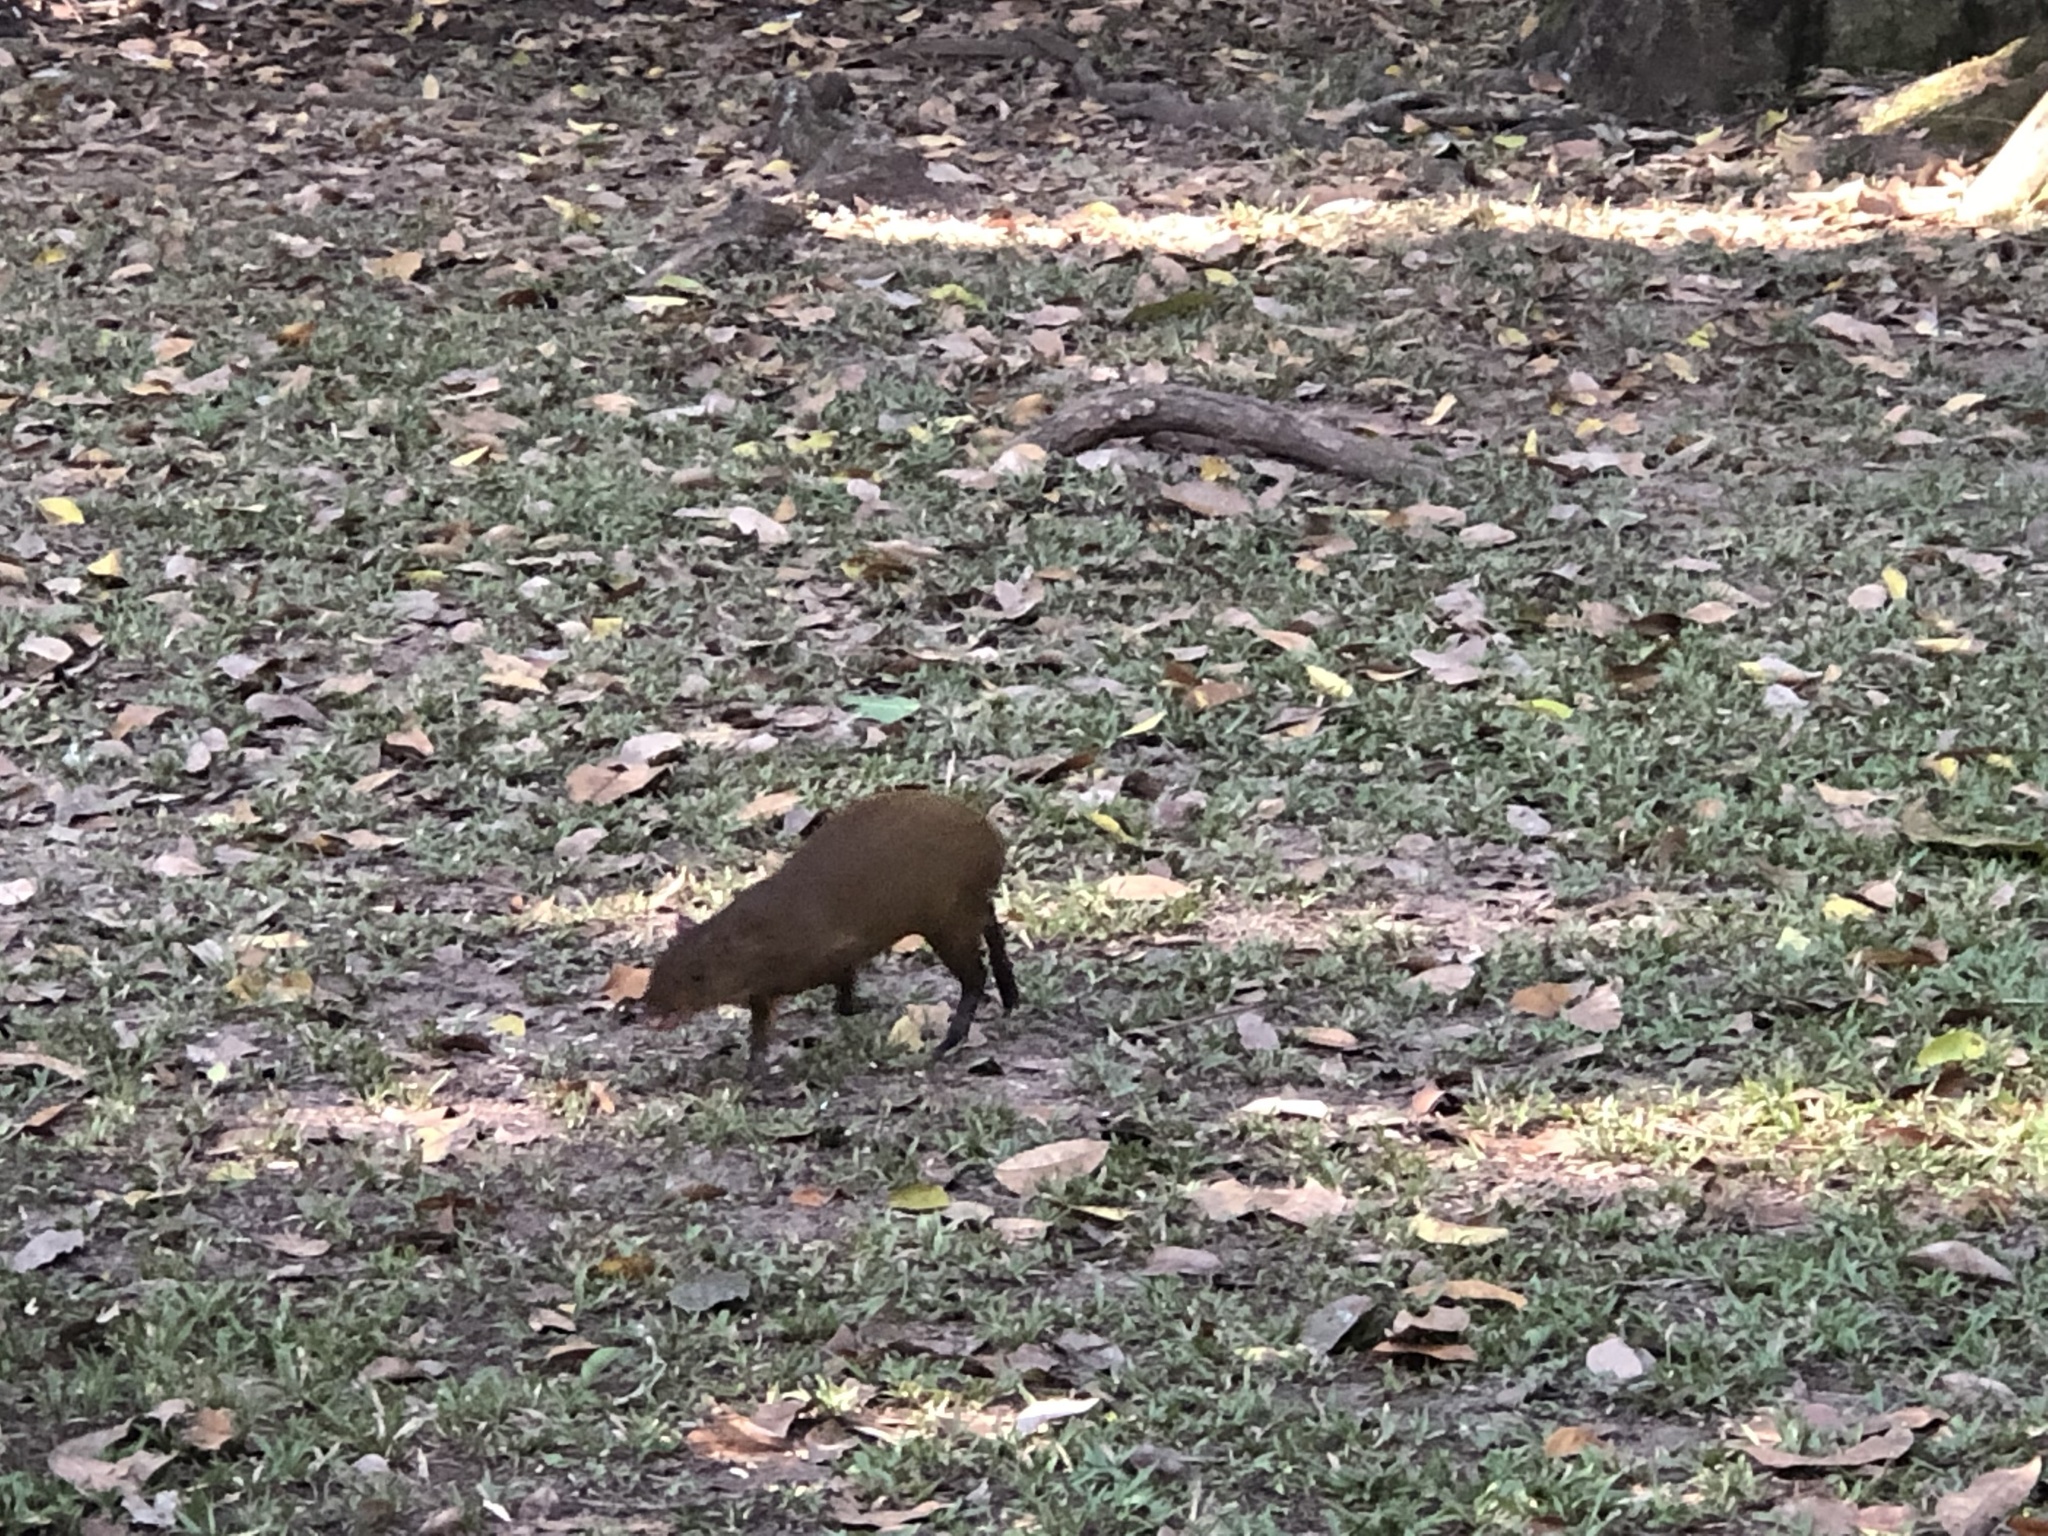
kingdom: Animalia
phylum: Chordata
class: Mammalia
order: Rodentia
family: Dasyproctidae
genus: Dasyprocta
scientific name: Dasyprocta punctata
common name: Central american agouti
